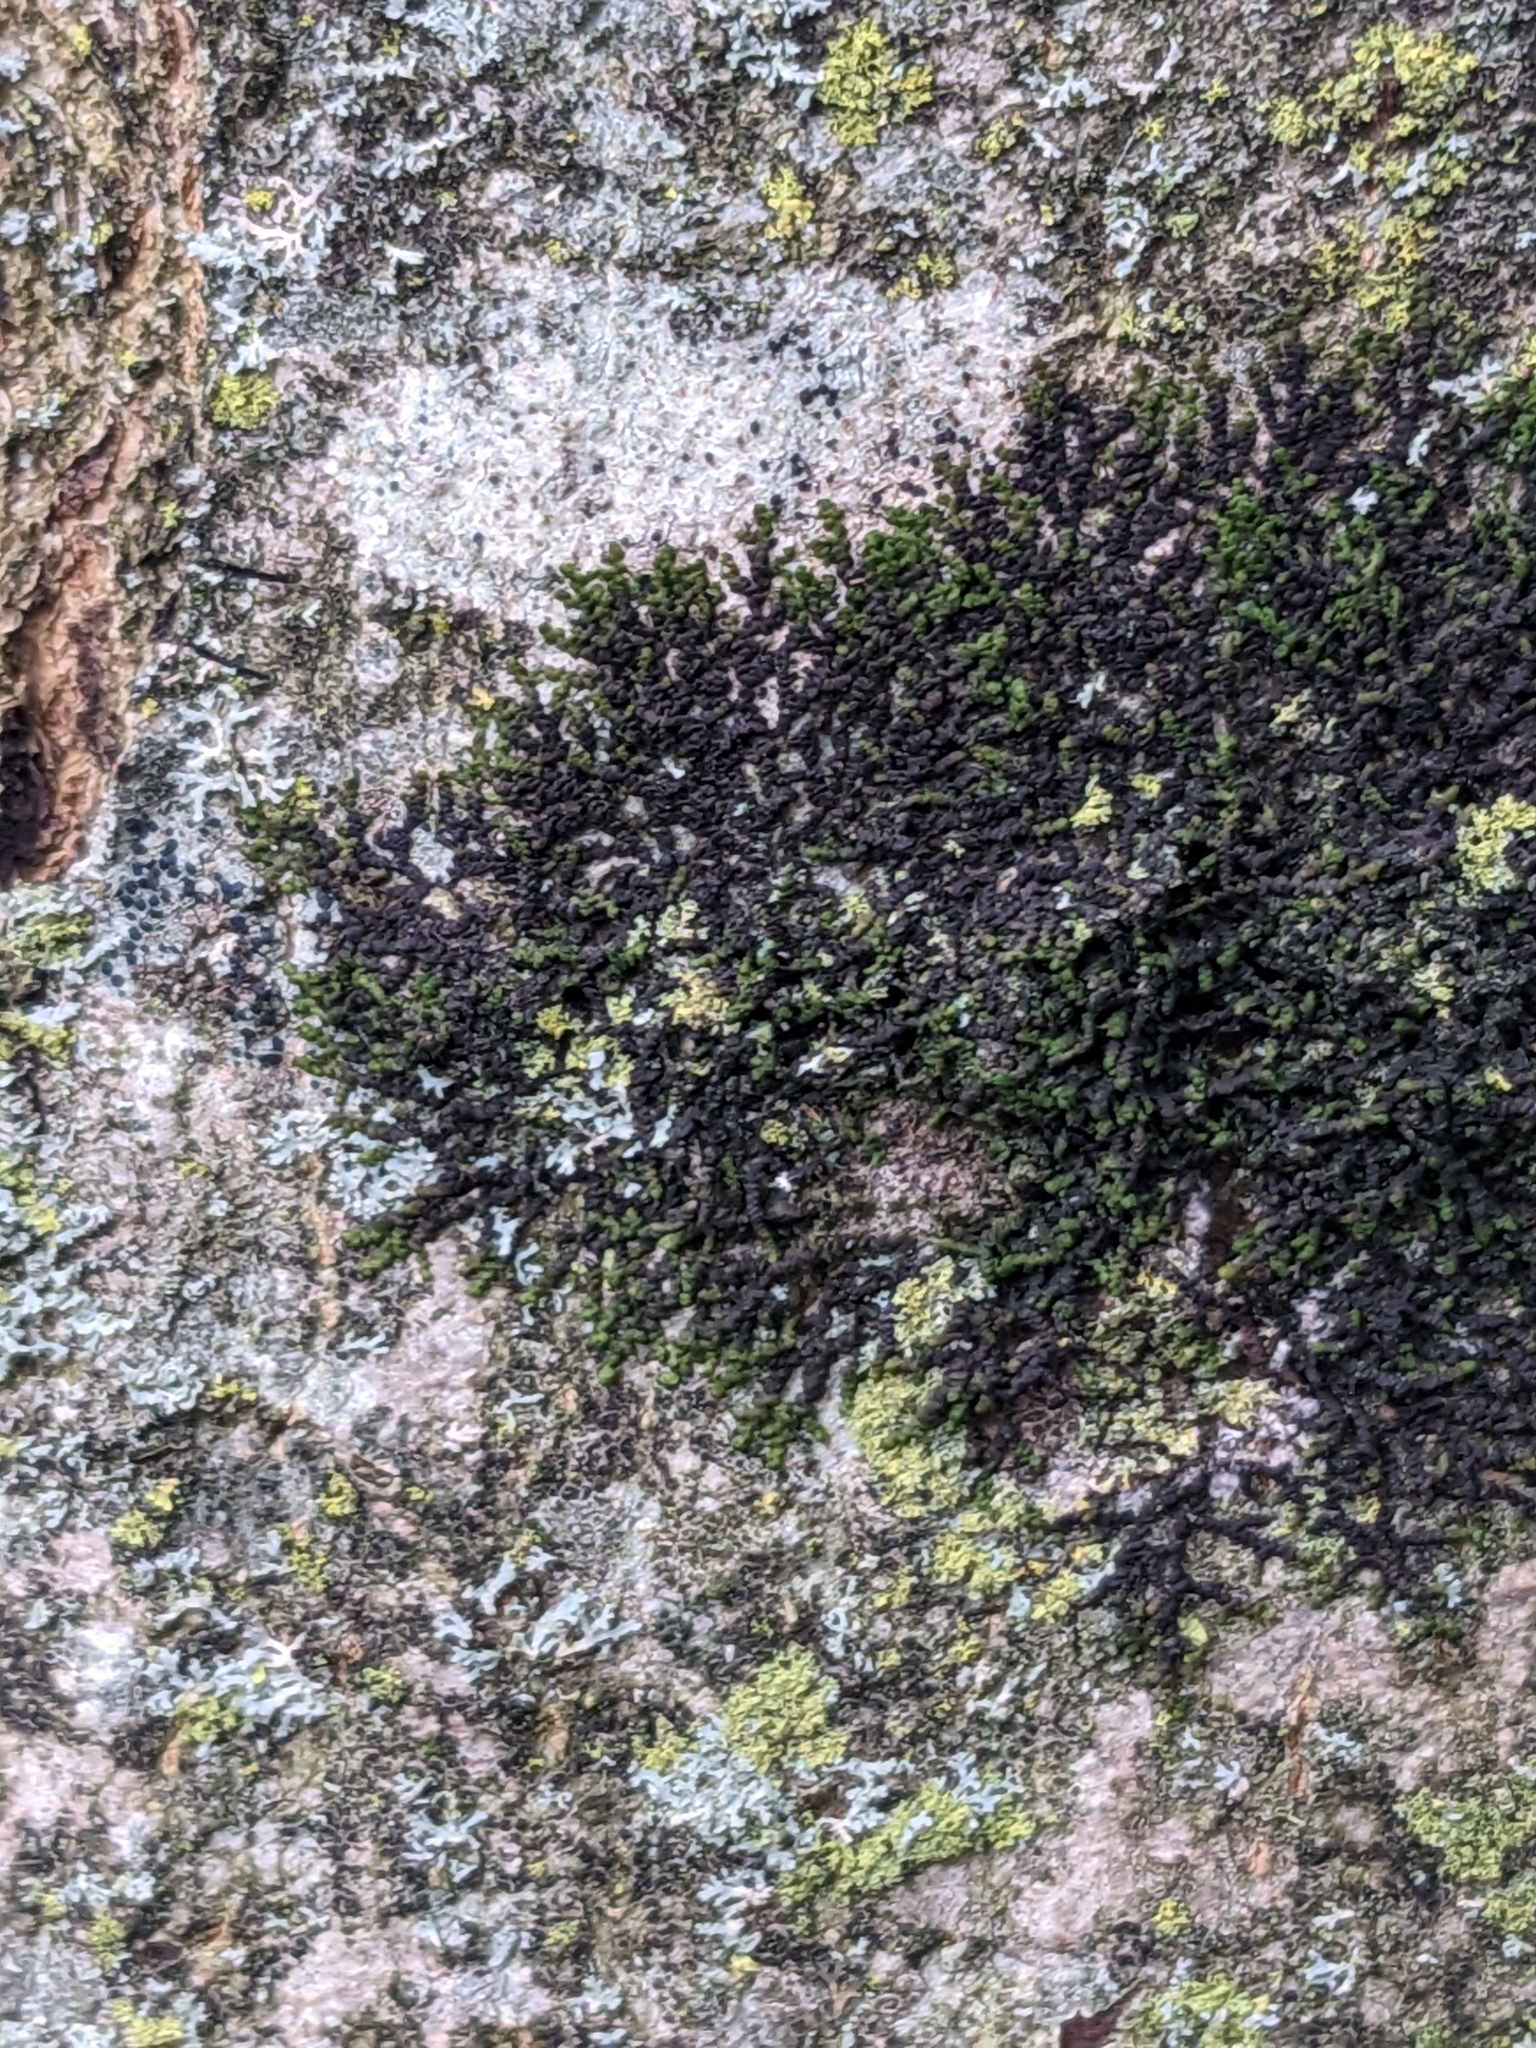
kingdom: Plantae
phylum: Marchantiophyta
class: Jungermanniopsida
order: Porellales
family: Frullaniaceae
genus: Frullania
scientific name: Frullania dilatata
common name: Dilated scalewort
